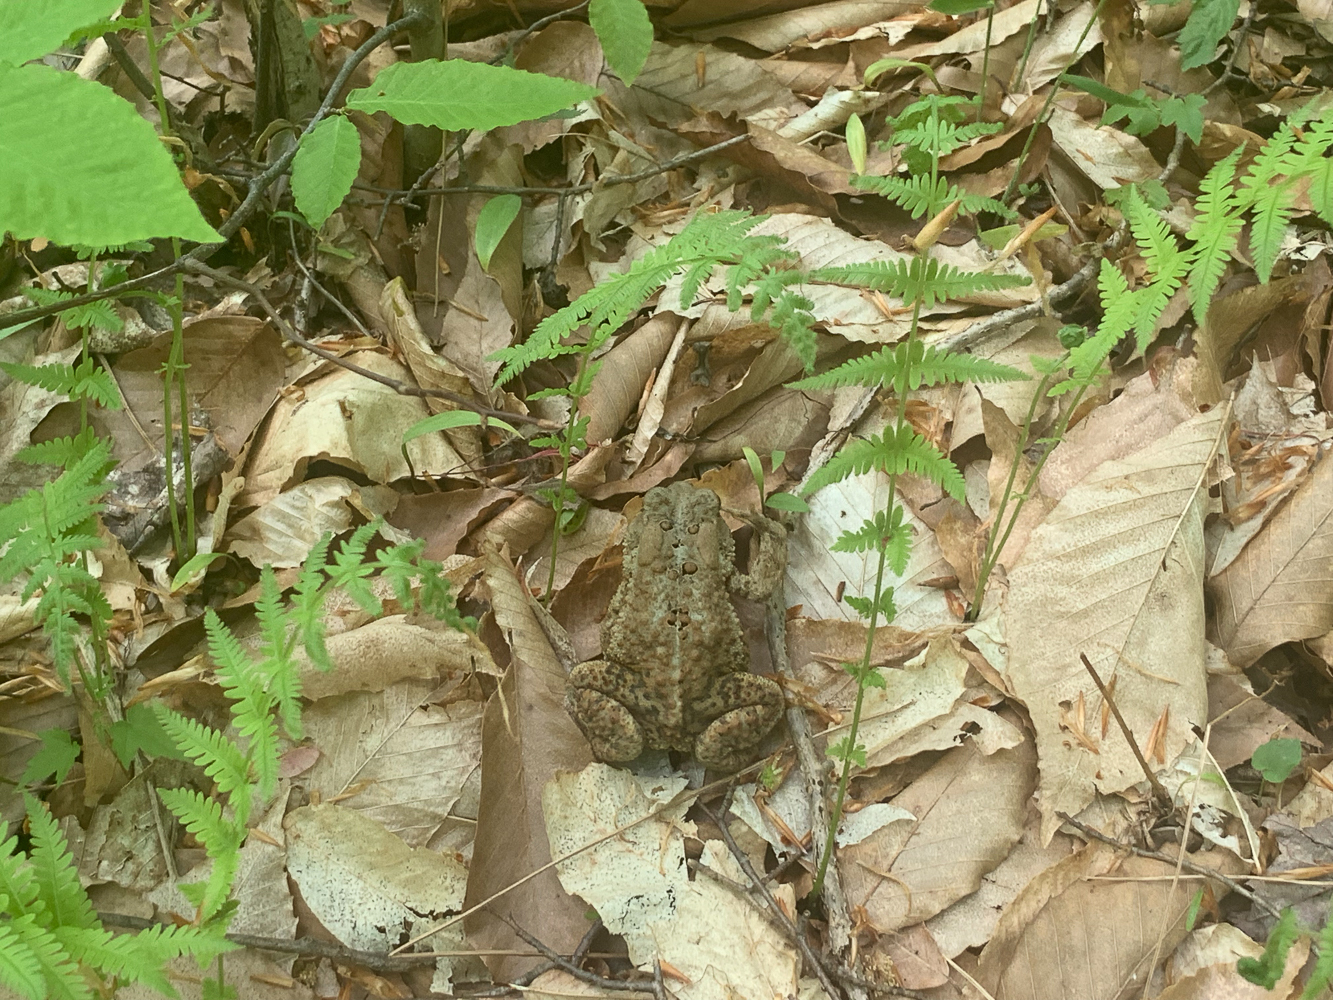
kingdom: Animalia
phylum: Chordata
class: Amphibia
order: Anura
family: Bufonidae
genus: Anaxyrus
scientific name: Anaxyrus americanus
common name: American toad
